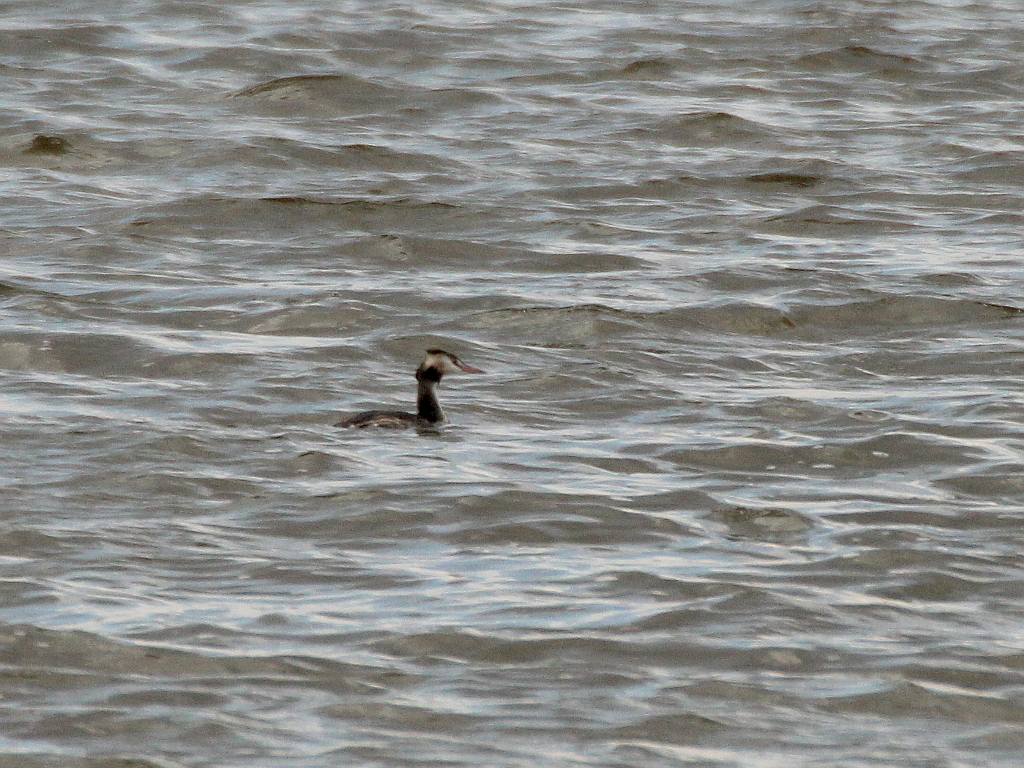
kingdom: Animalia
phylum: Chordata
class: Aves
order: Podicipediformes
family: Podicipedidae
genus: Podiceps
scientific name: Podiceps cristatus
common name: Great crested grebe
